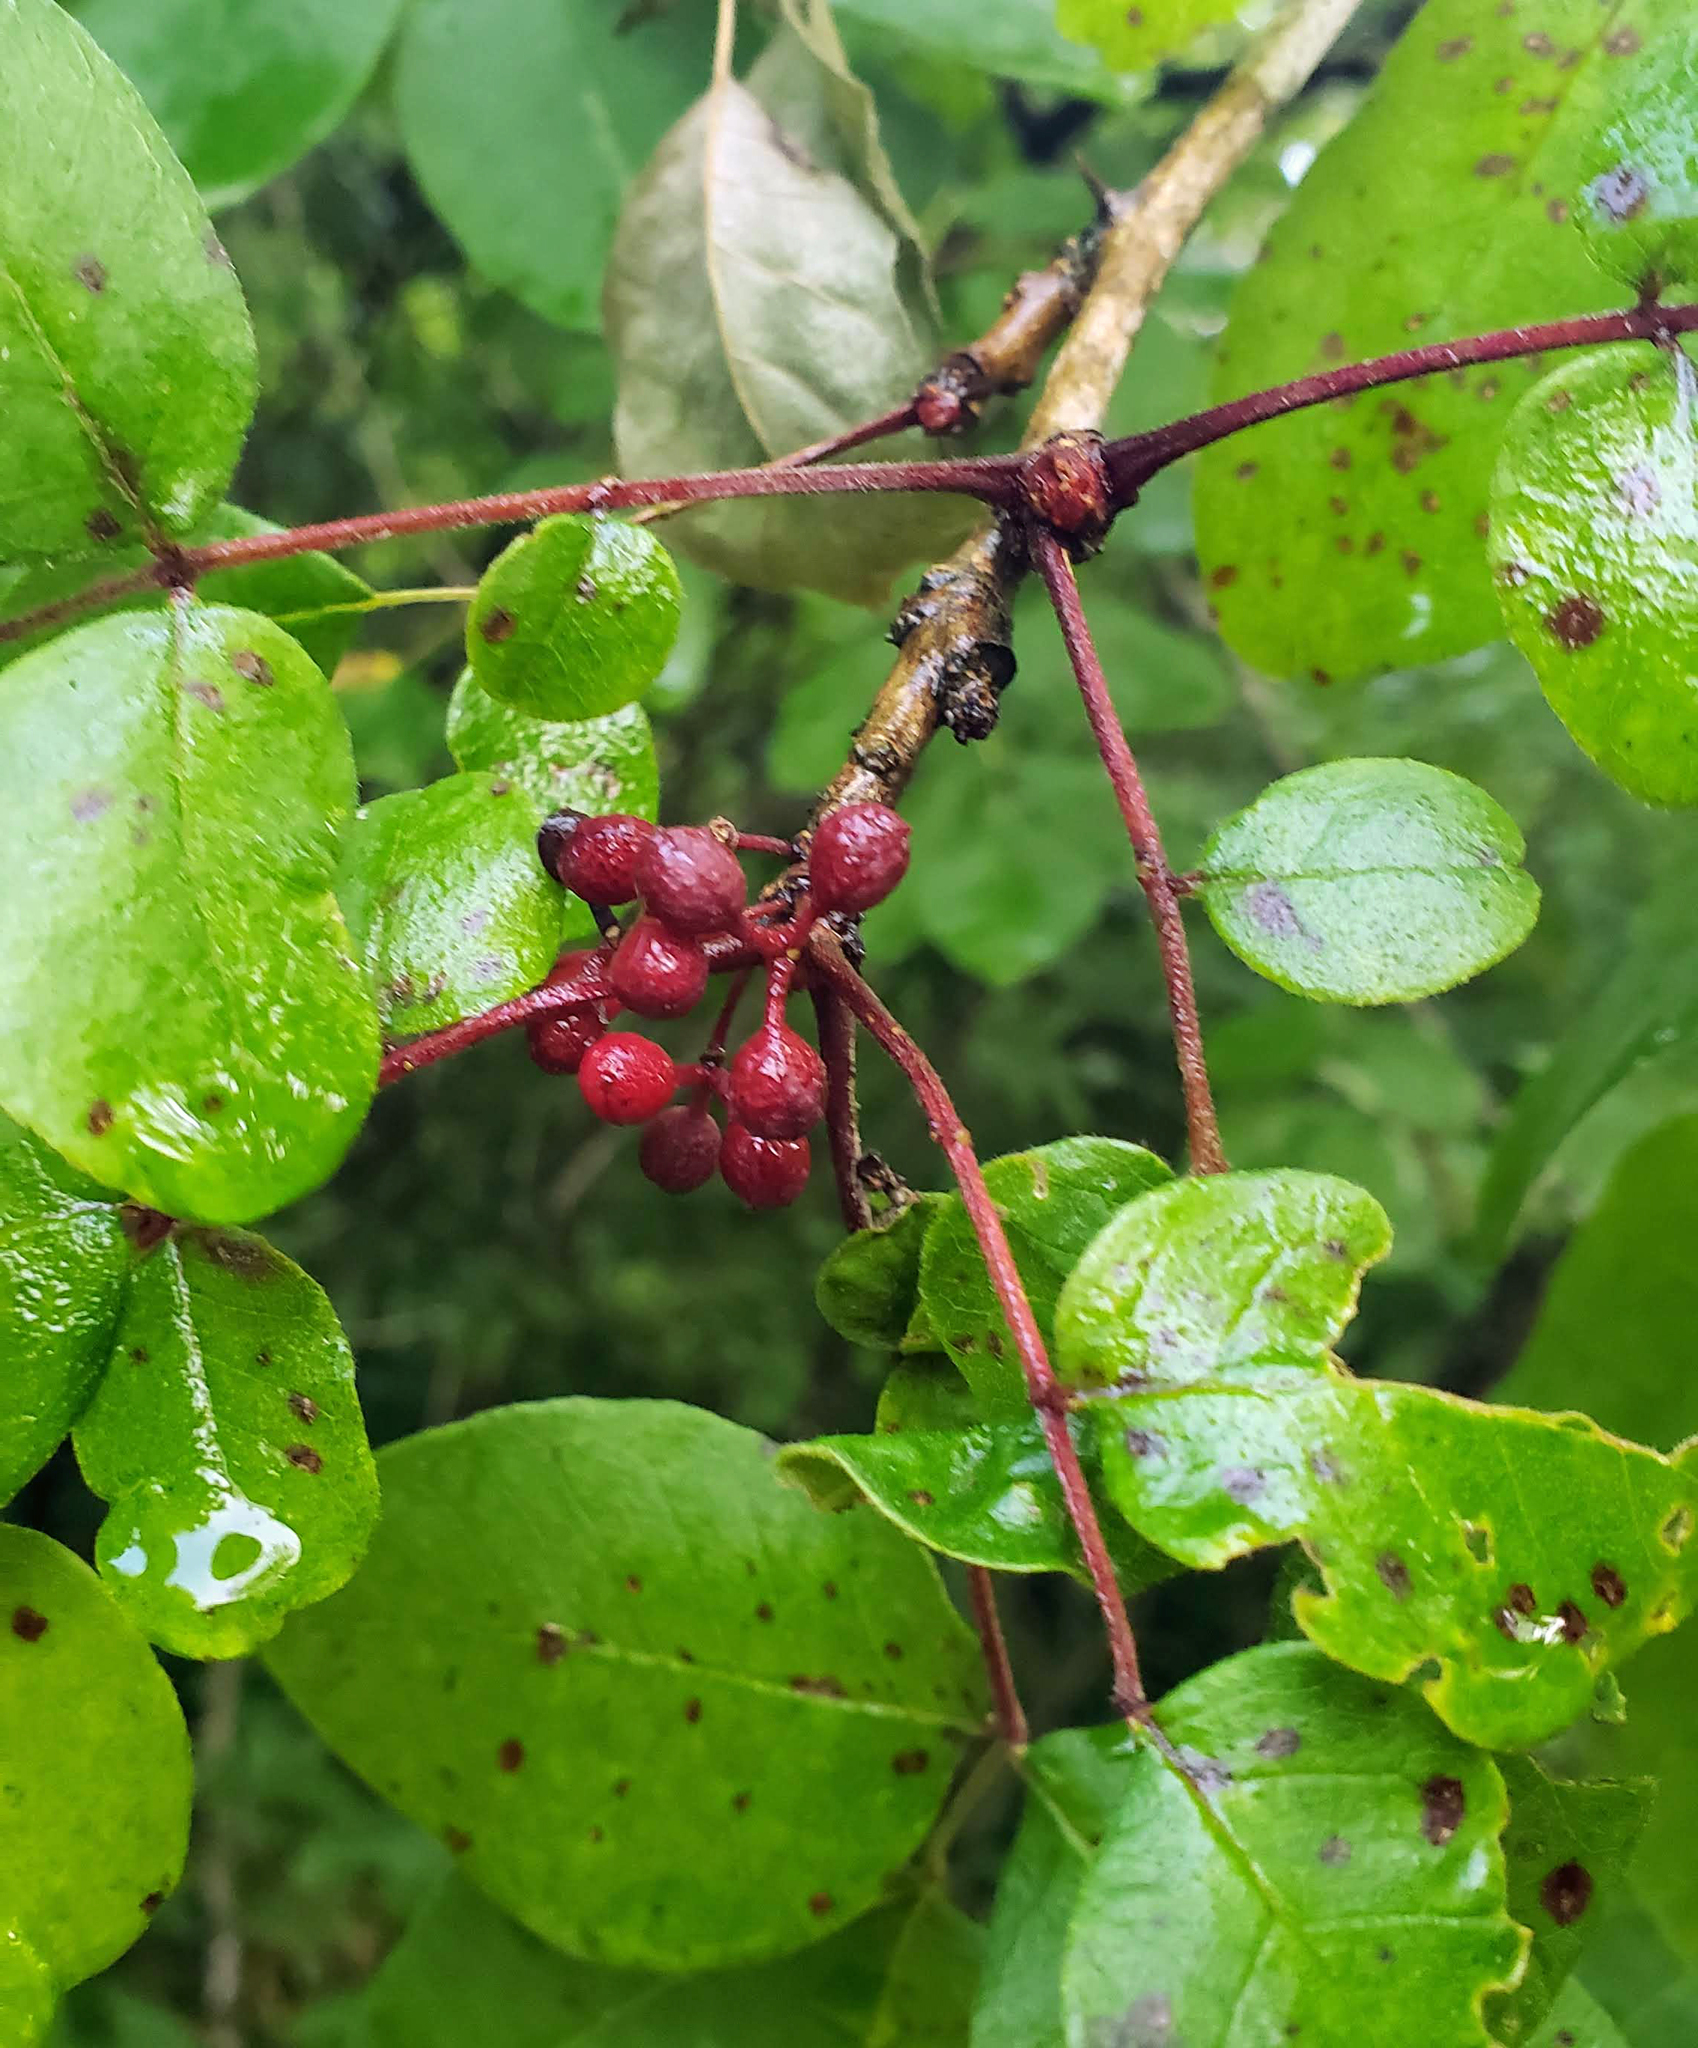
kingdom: Plantae
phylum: Tracheophyta
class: Magnoliopsida
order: Sapindales
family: Rutaceae
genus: Zanthoxylum
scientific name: Zanthoxylum americanum
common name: Northern prickly-ash
